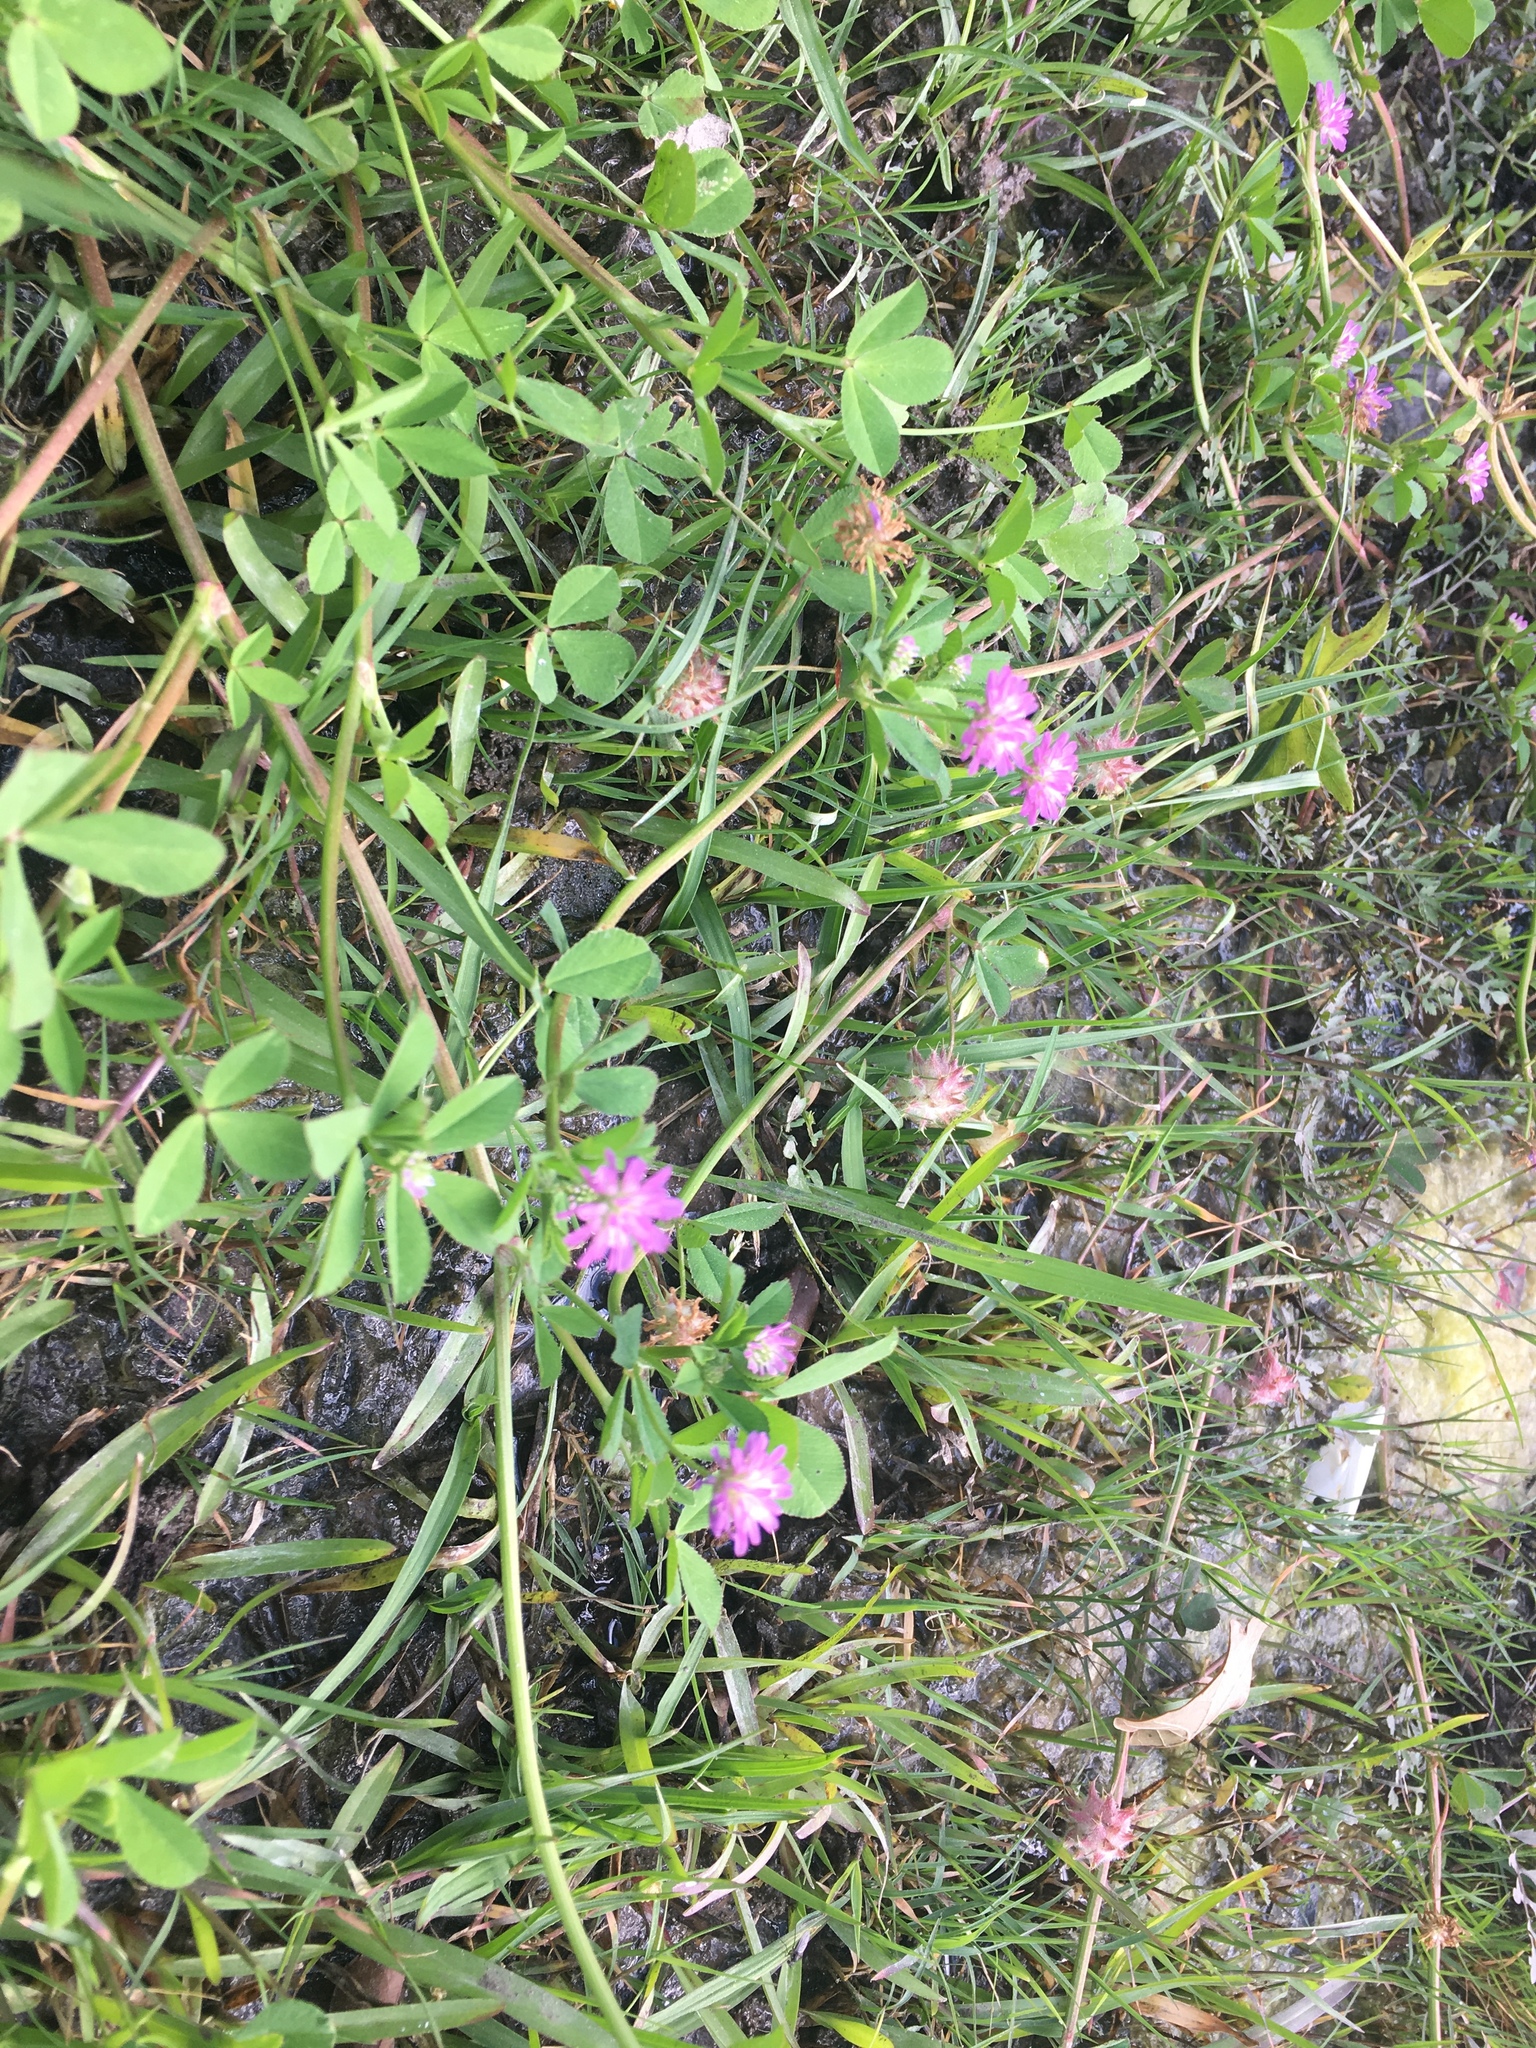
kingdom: Plantae
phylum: Tracheophyta
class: Magnoliopsida
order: Fabales
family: Fabaceae
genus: Trifolium
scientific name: Trifolium resupinatum
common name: Reversed clover
